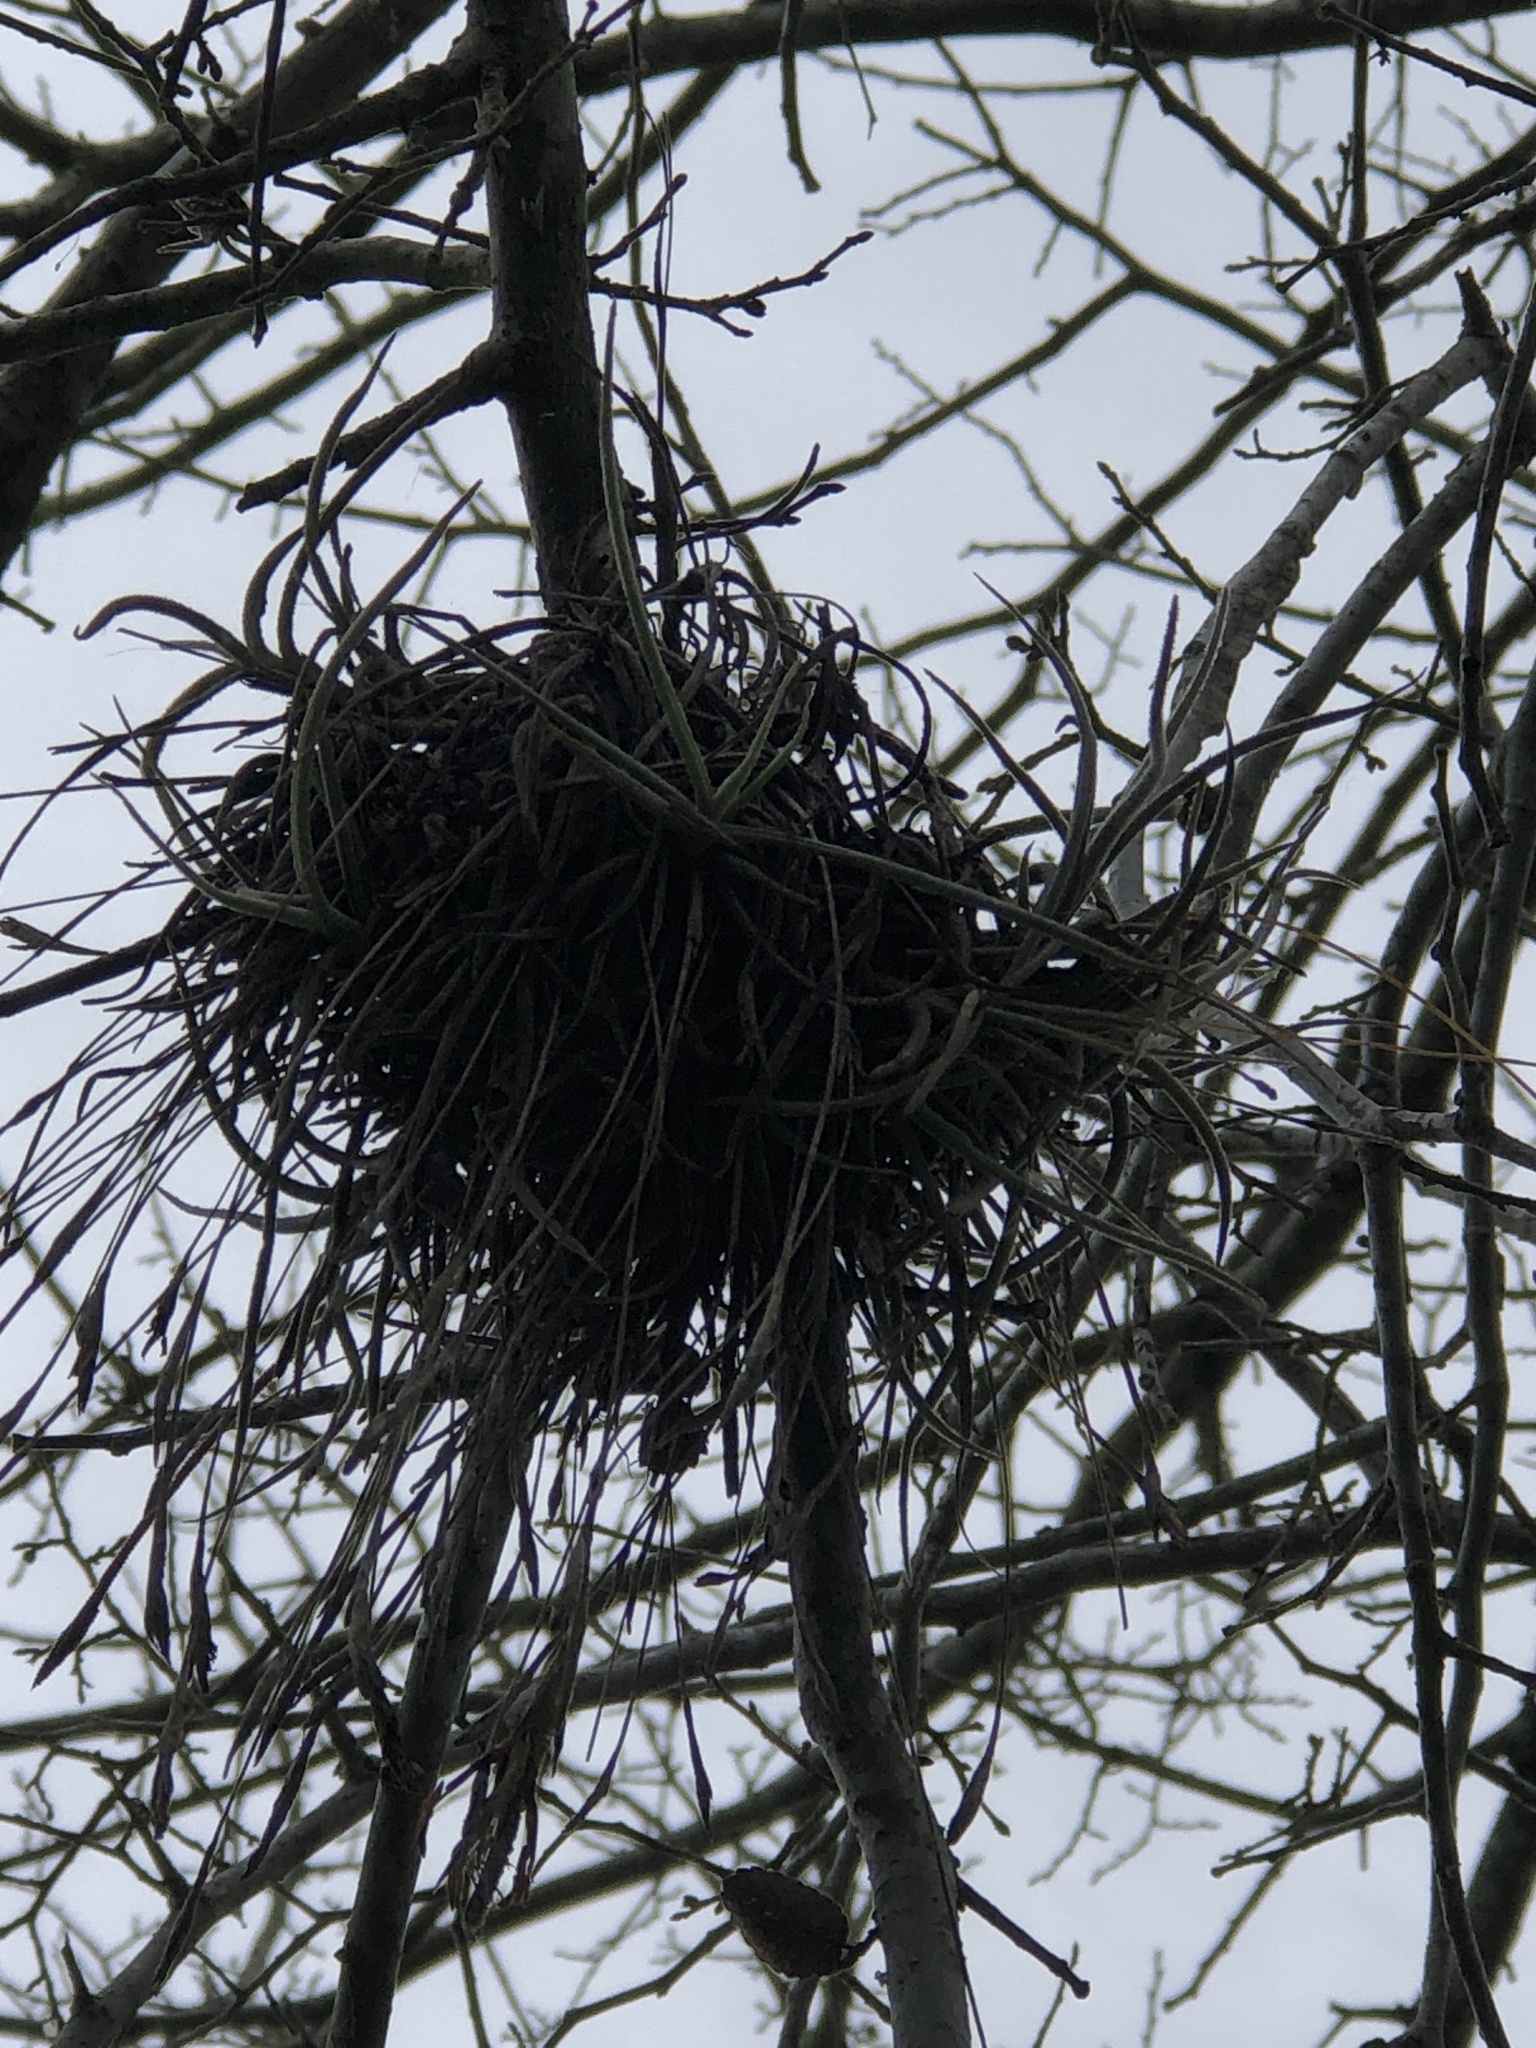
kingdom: Plantae
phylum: Tracheophyta
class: Liliopsida
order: Poales
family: Bromeliaceae
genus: Tillandsia
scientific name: Tillandsia recurvata
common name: Small ballmoss
